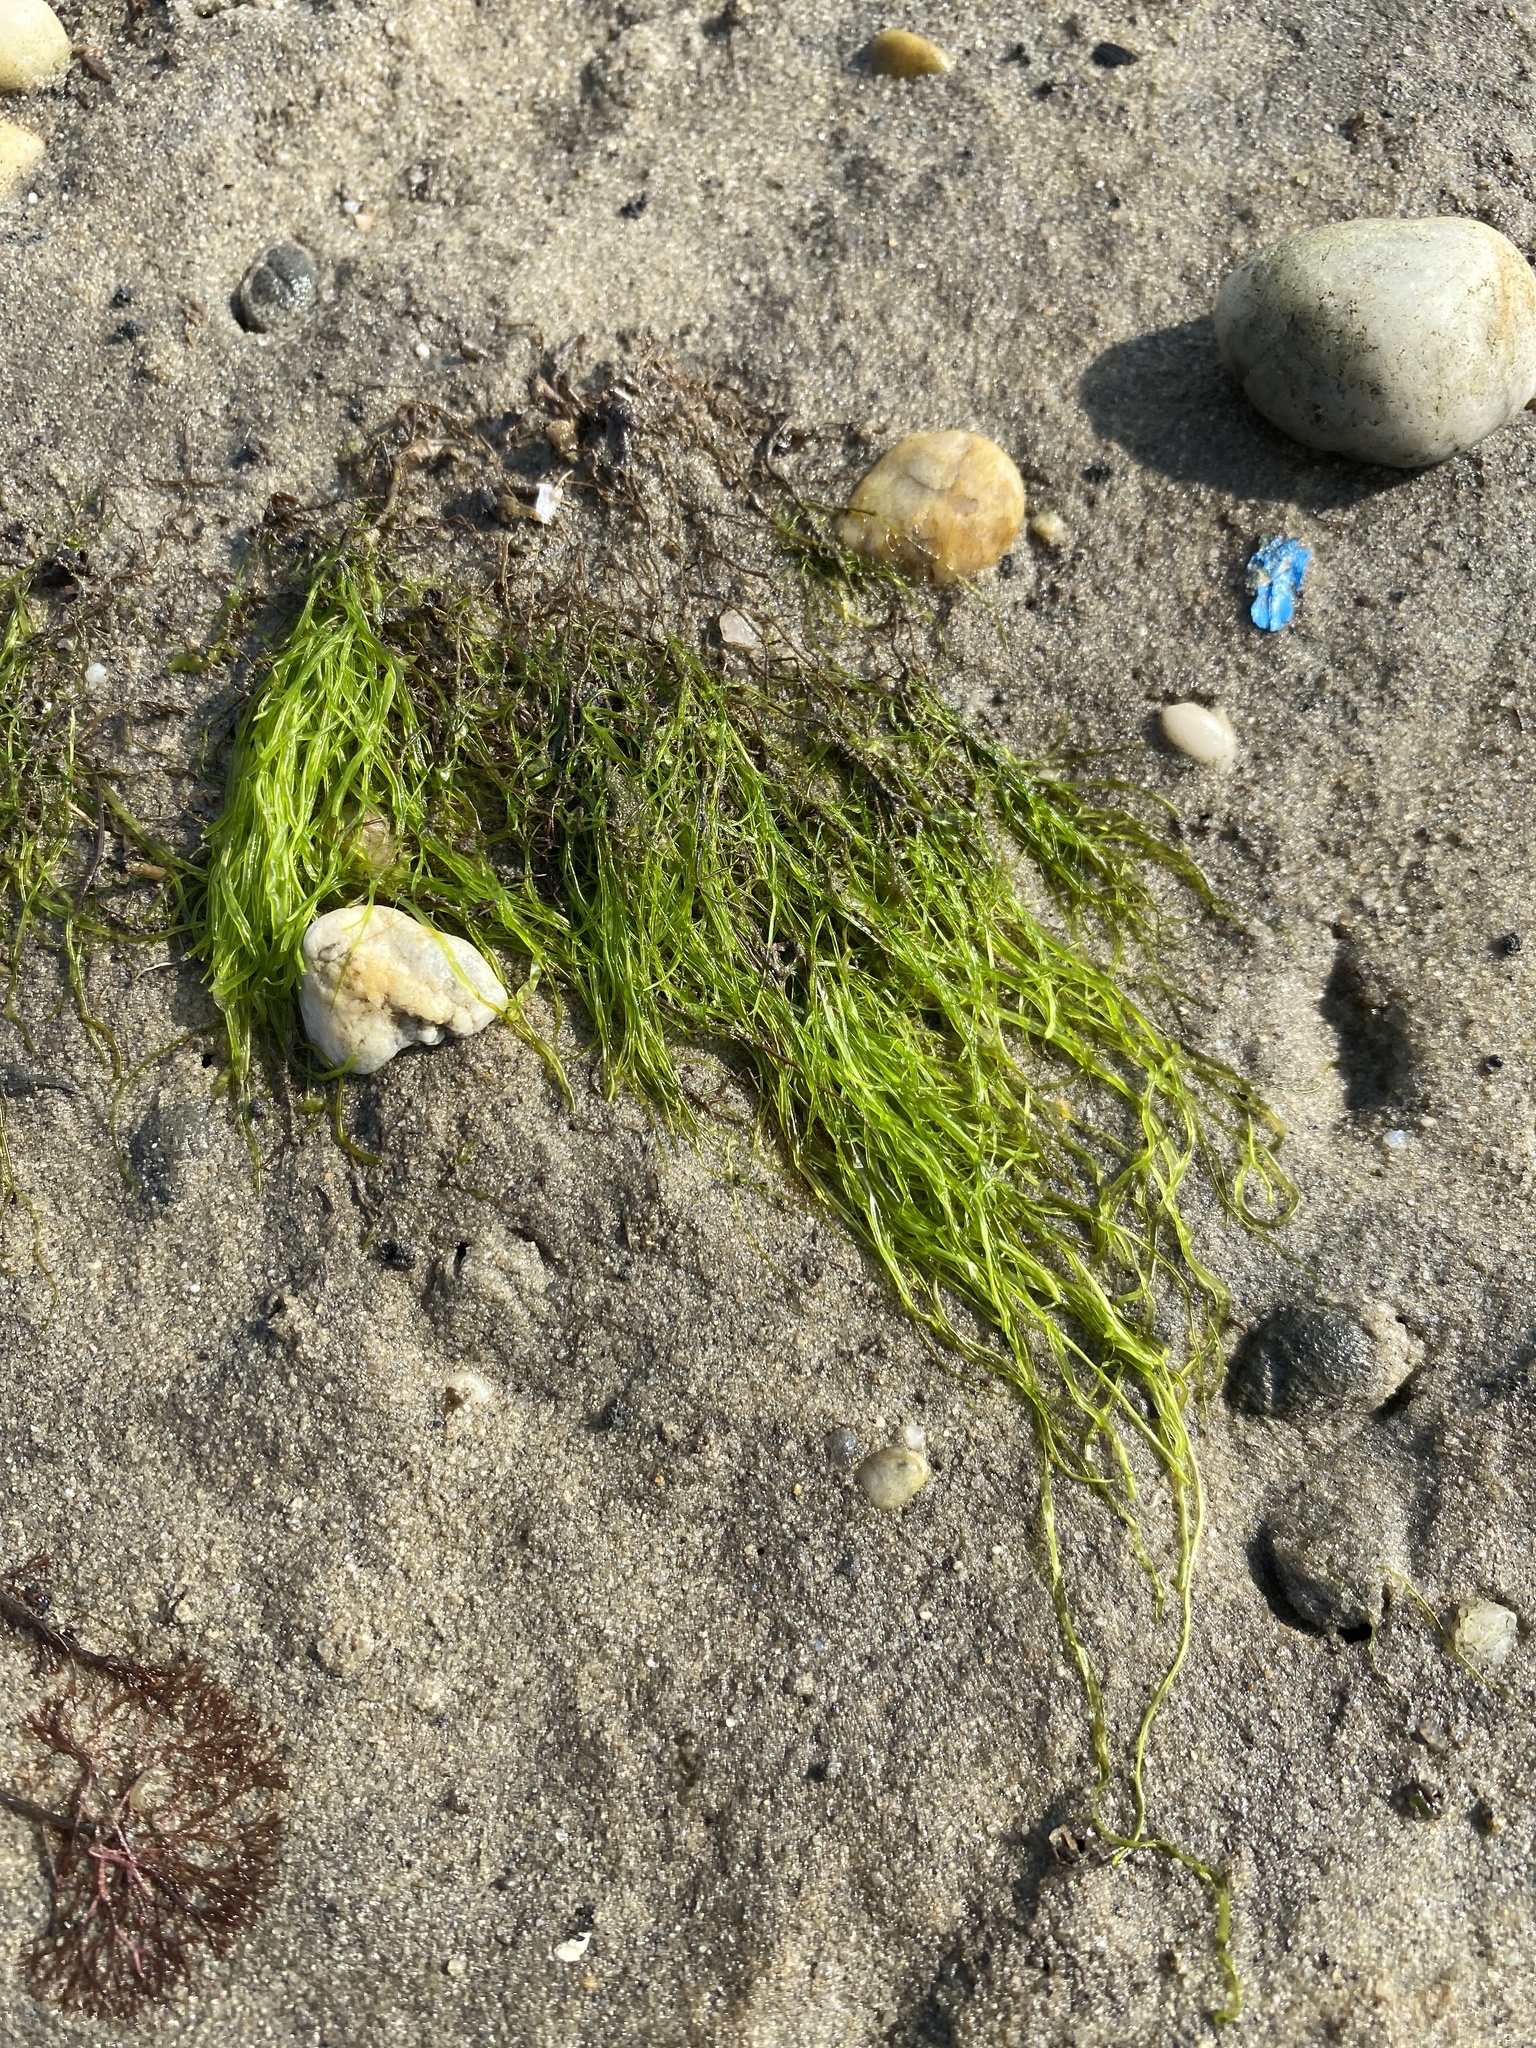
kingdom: Plantae
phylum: Chlorophyta
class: Ulvophyceae
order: Ulvales
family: Ulvaceae
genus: Ulva
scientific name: Ulva intestinalis
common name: Gut weed
